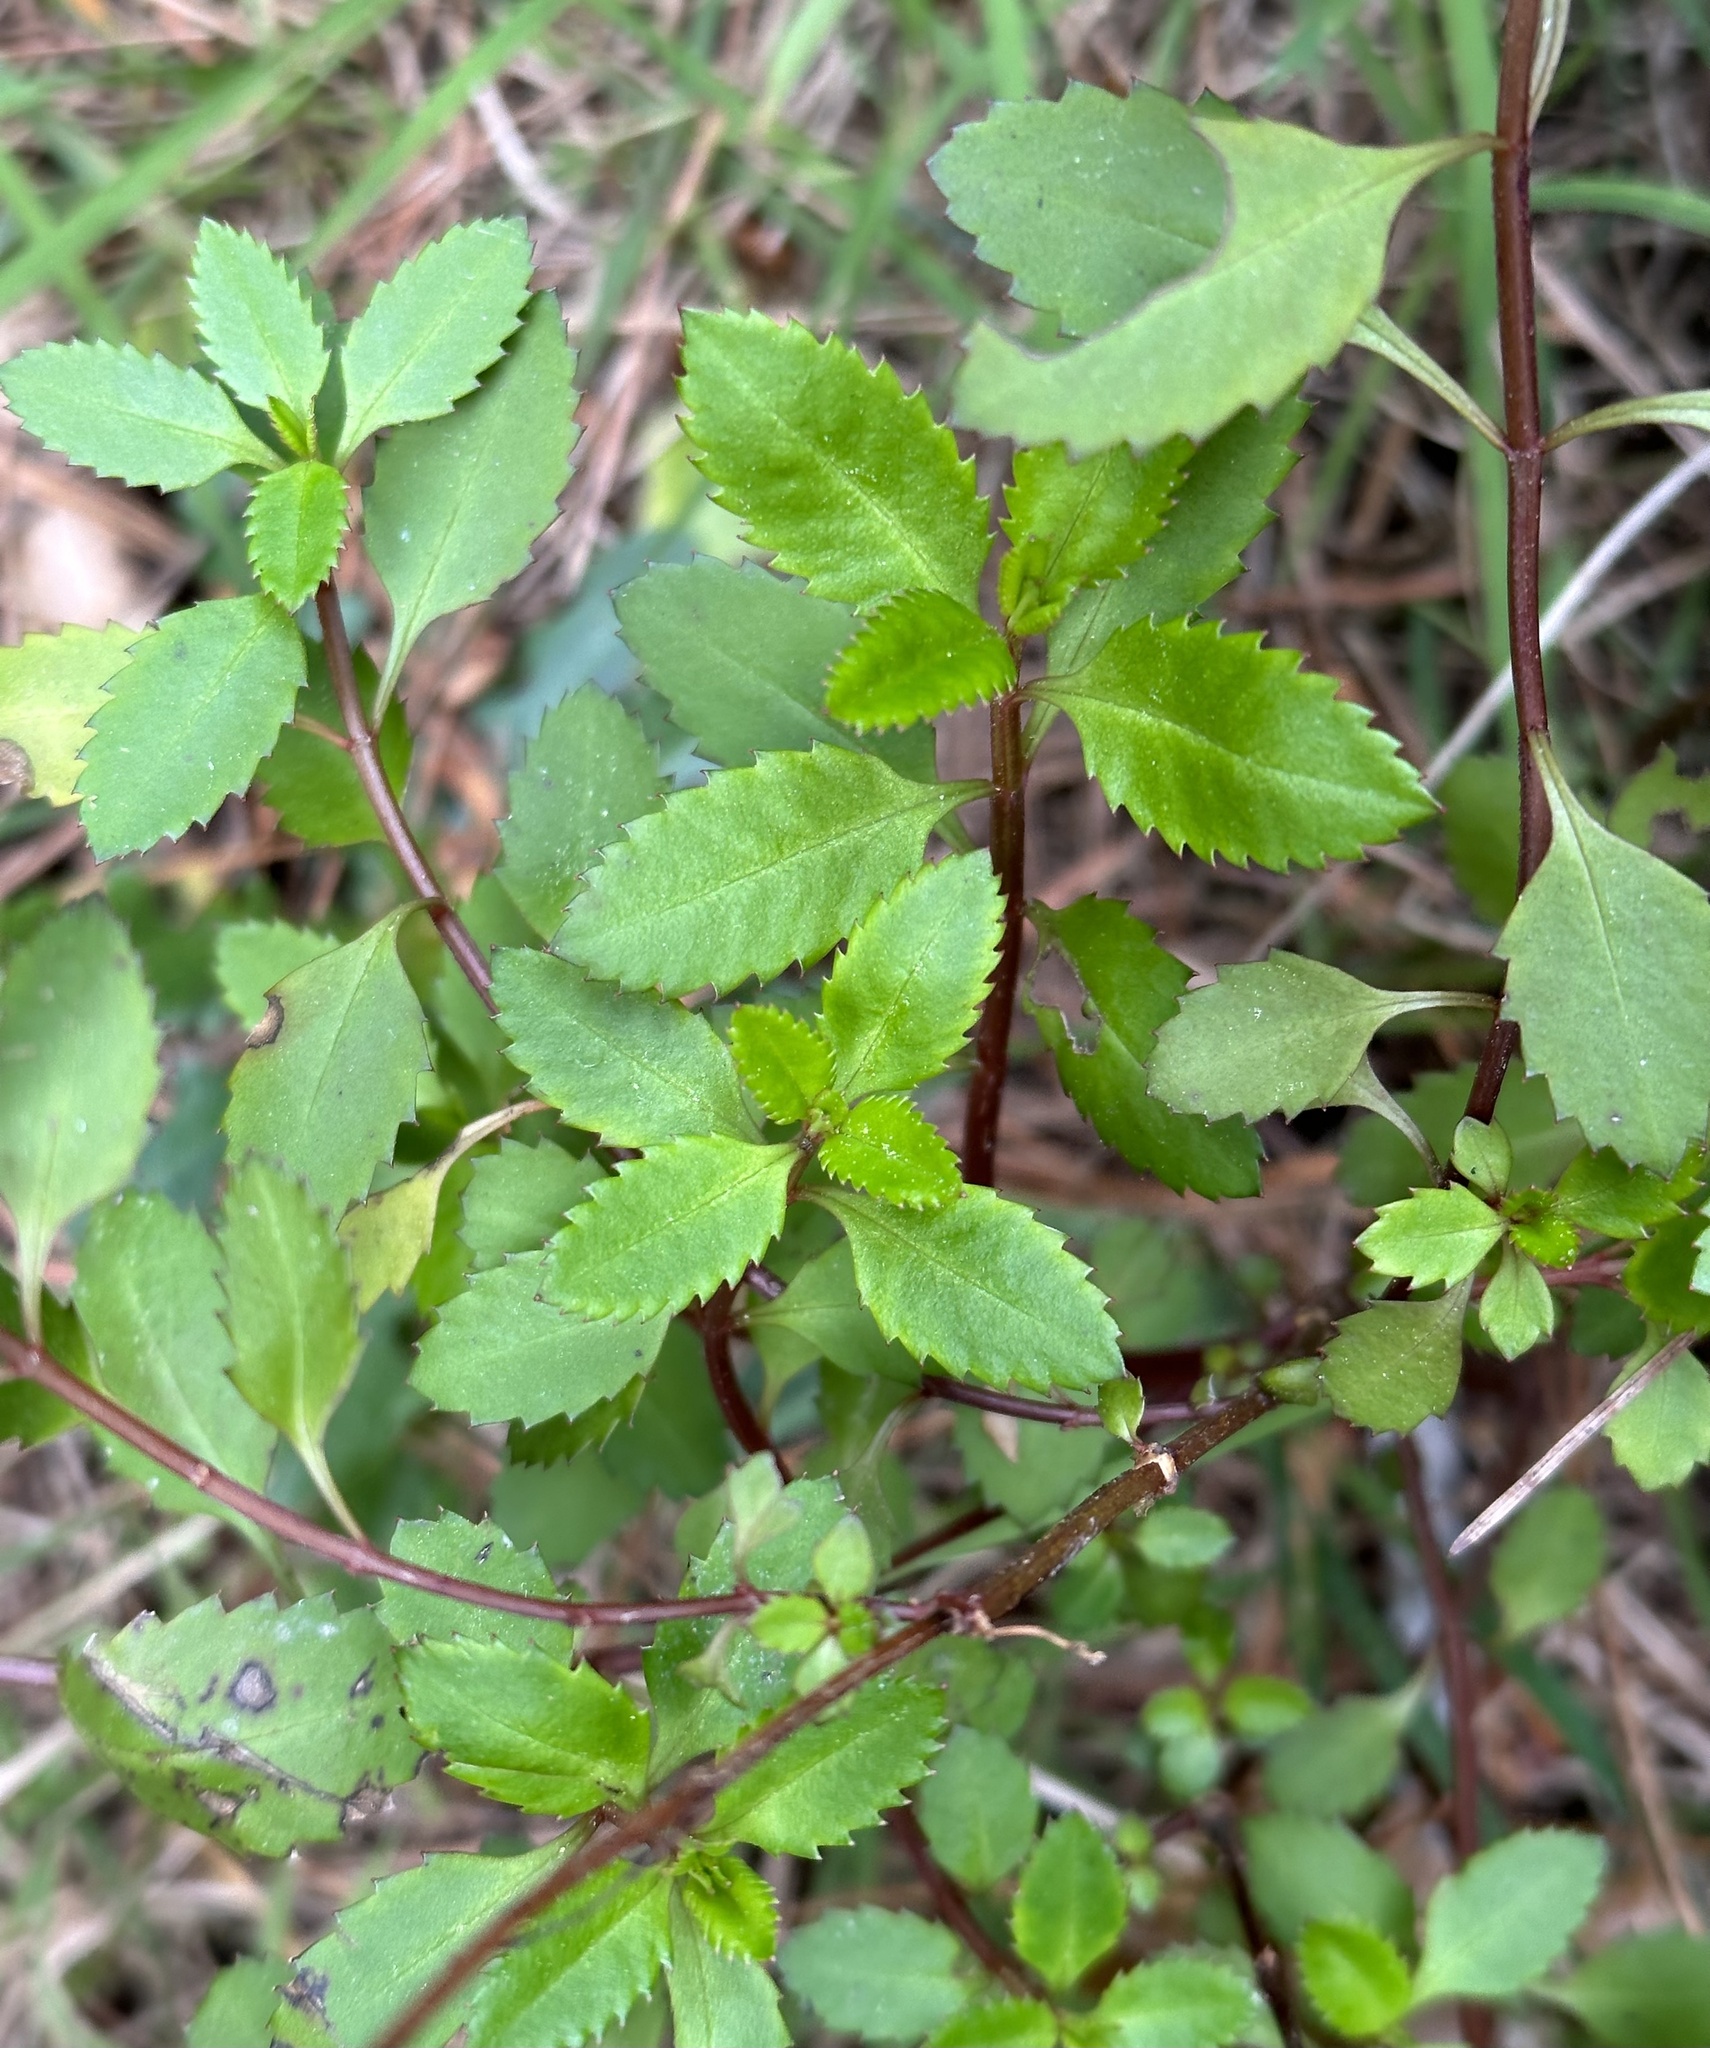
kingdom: Plantae
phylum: Tracheophyta
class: Magnoliopsida
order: Saxifragales
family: Haloragaceae
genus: Haloragis
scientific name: Haloragis erecta
